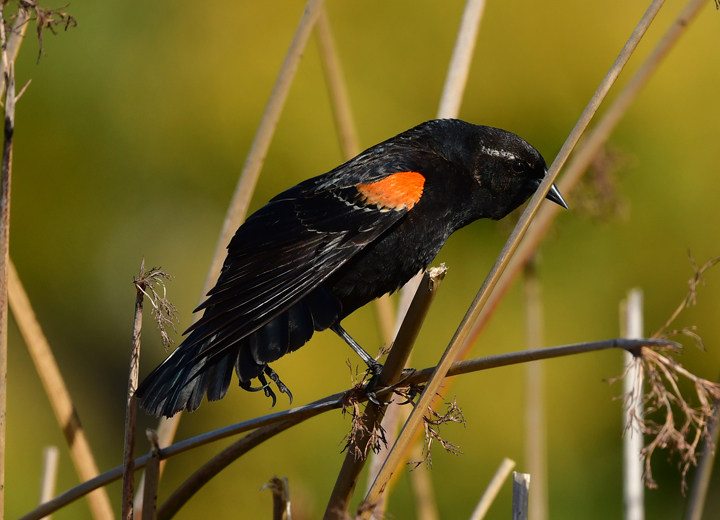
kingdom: Animalia
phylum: Chordata
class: Aves
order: Passeriformes
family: Icteridae
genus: Agelaius
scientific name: Agelaius phoeniceus
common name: Red-winged blackbird
